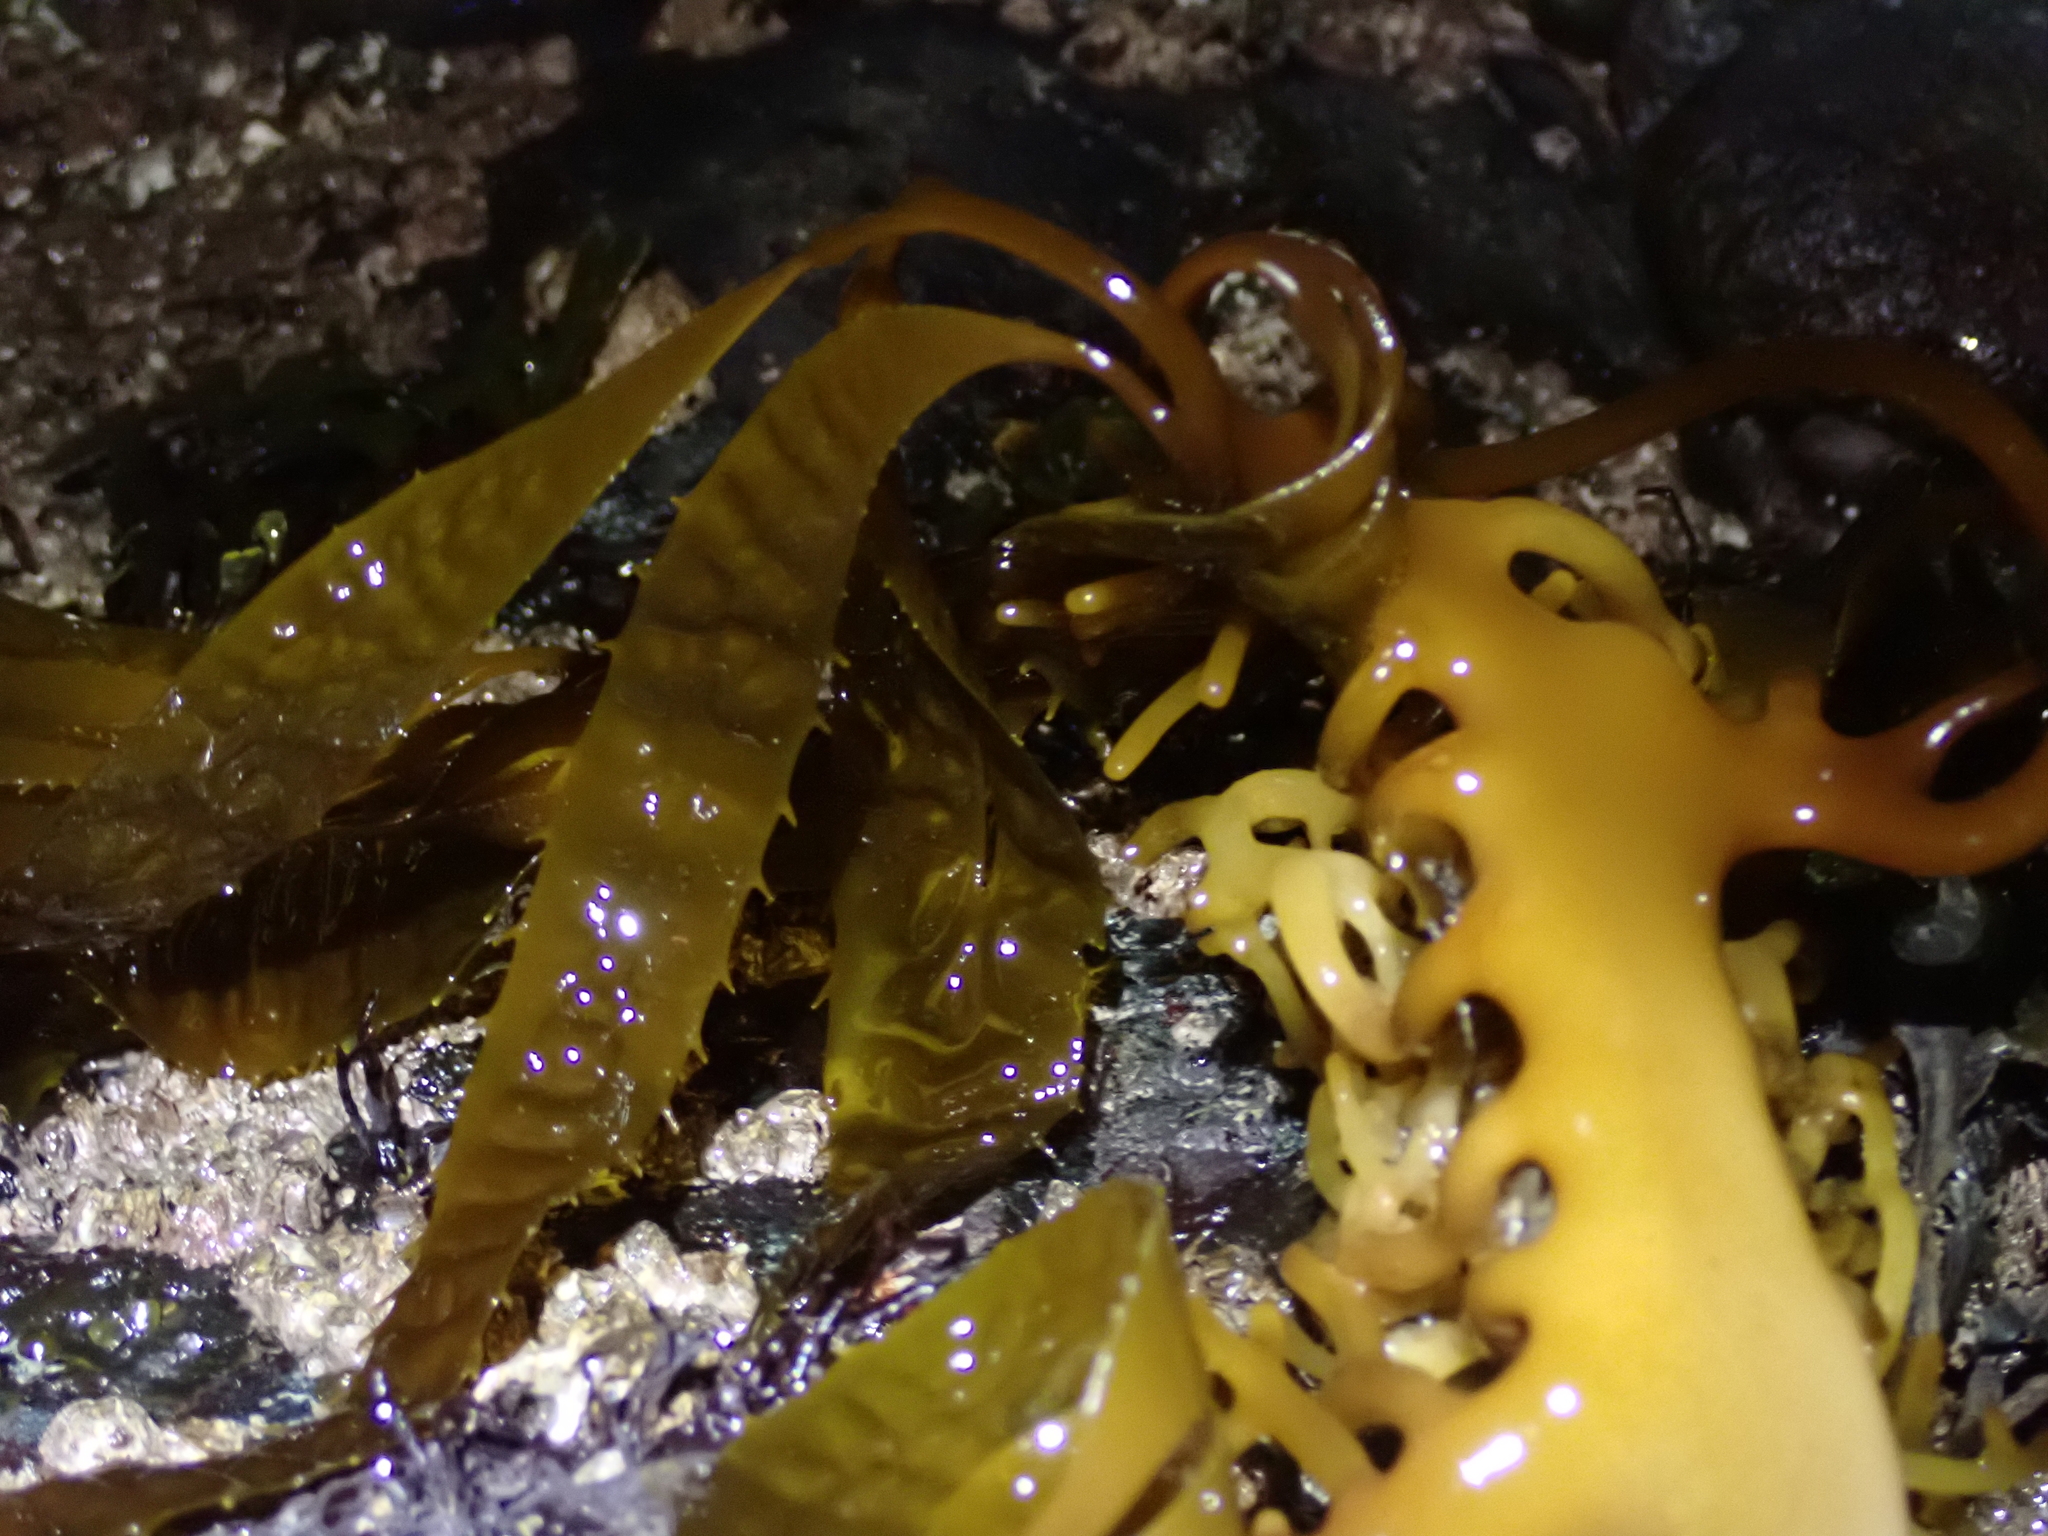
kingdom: Chromista
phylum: Ochrophyta
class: Phaeophyceae
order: Laminariales
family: Laminariaceae
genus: Macrocystis
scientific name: Macrocystis pyrifera
